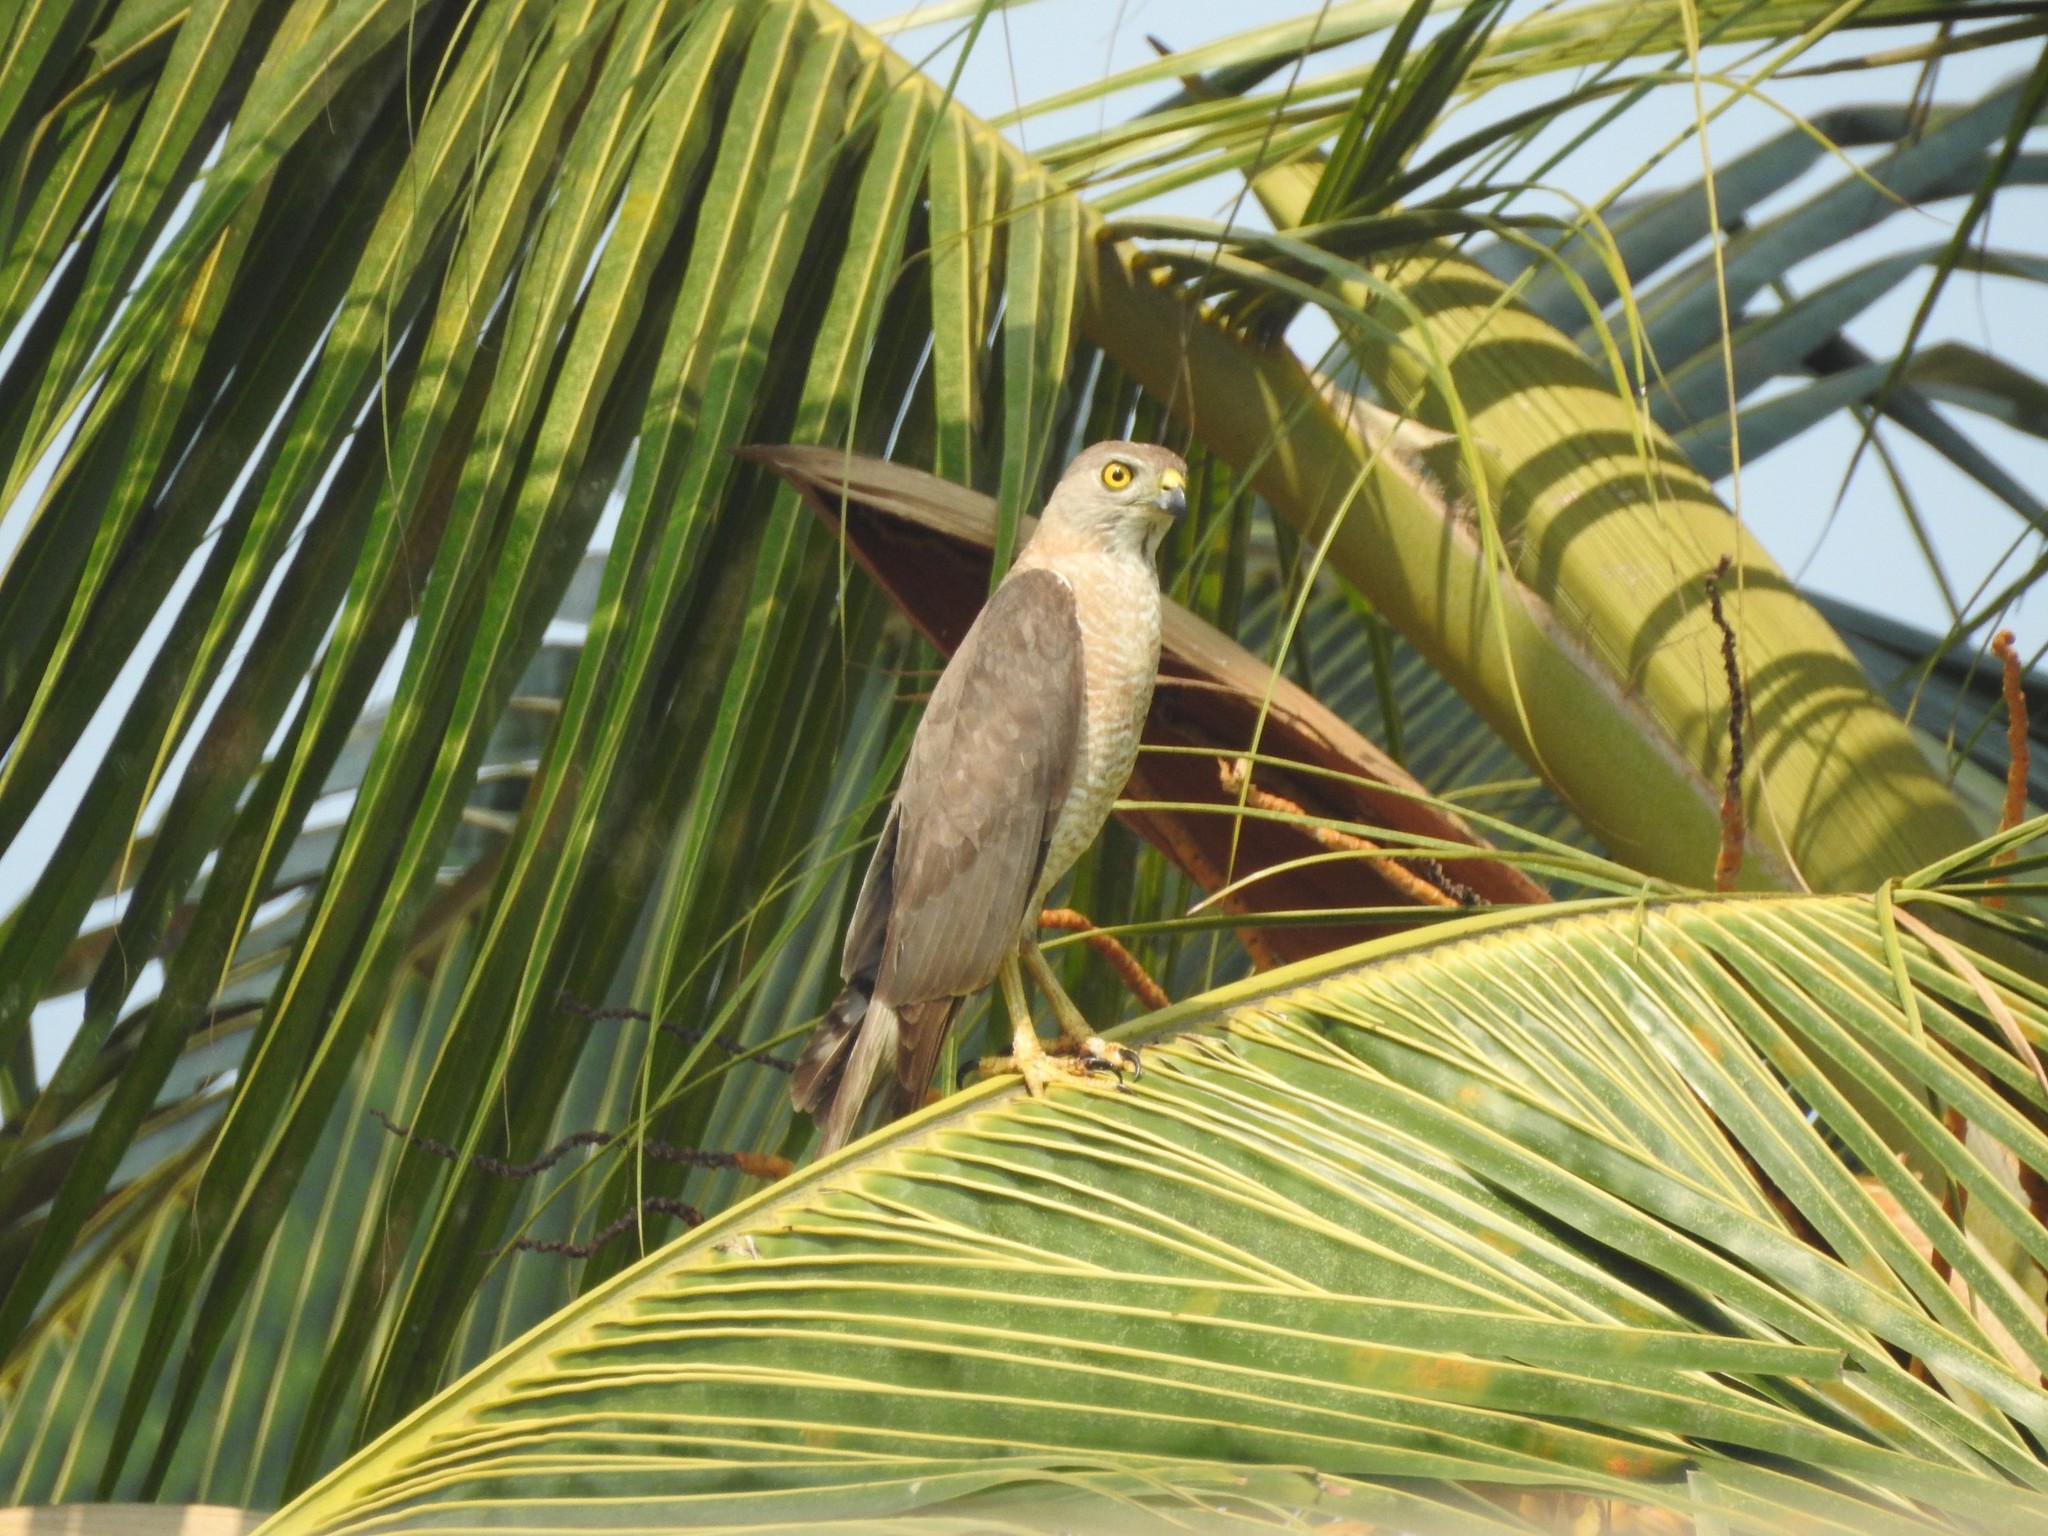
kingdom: Animalia
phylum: Chordata
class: Aves
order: Accipitriformes
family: Accipitridae
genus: Accipiter
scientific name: Accipiter badius
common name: Shikra
